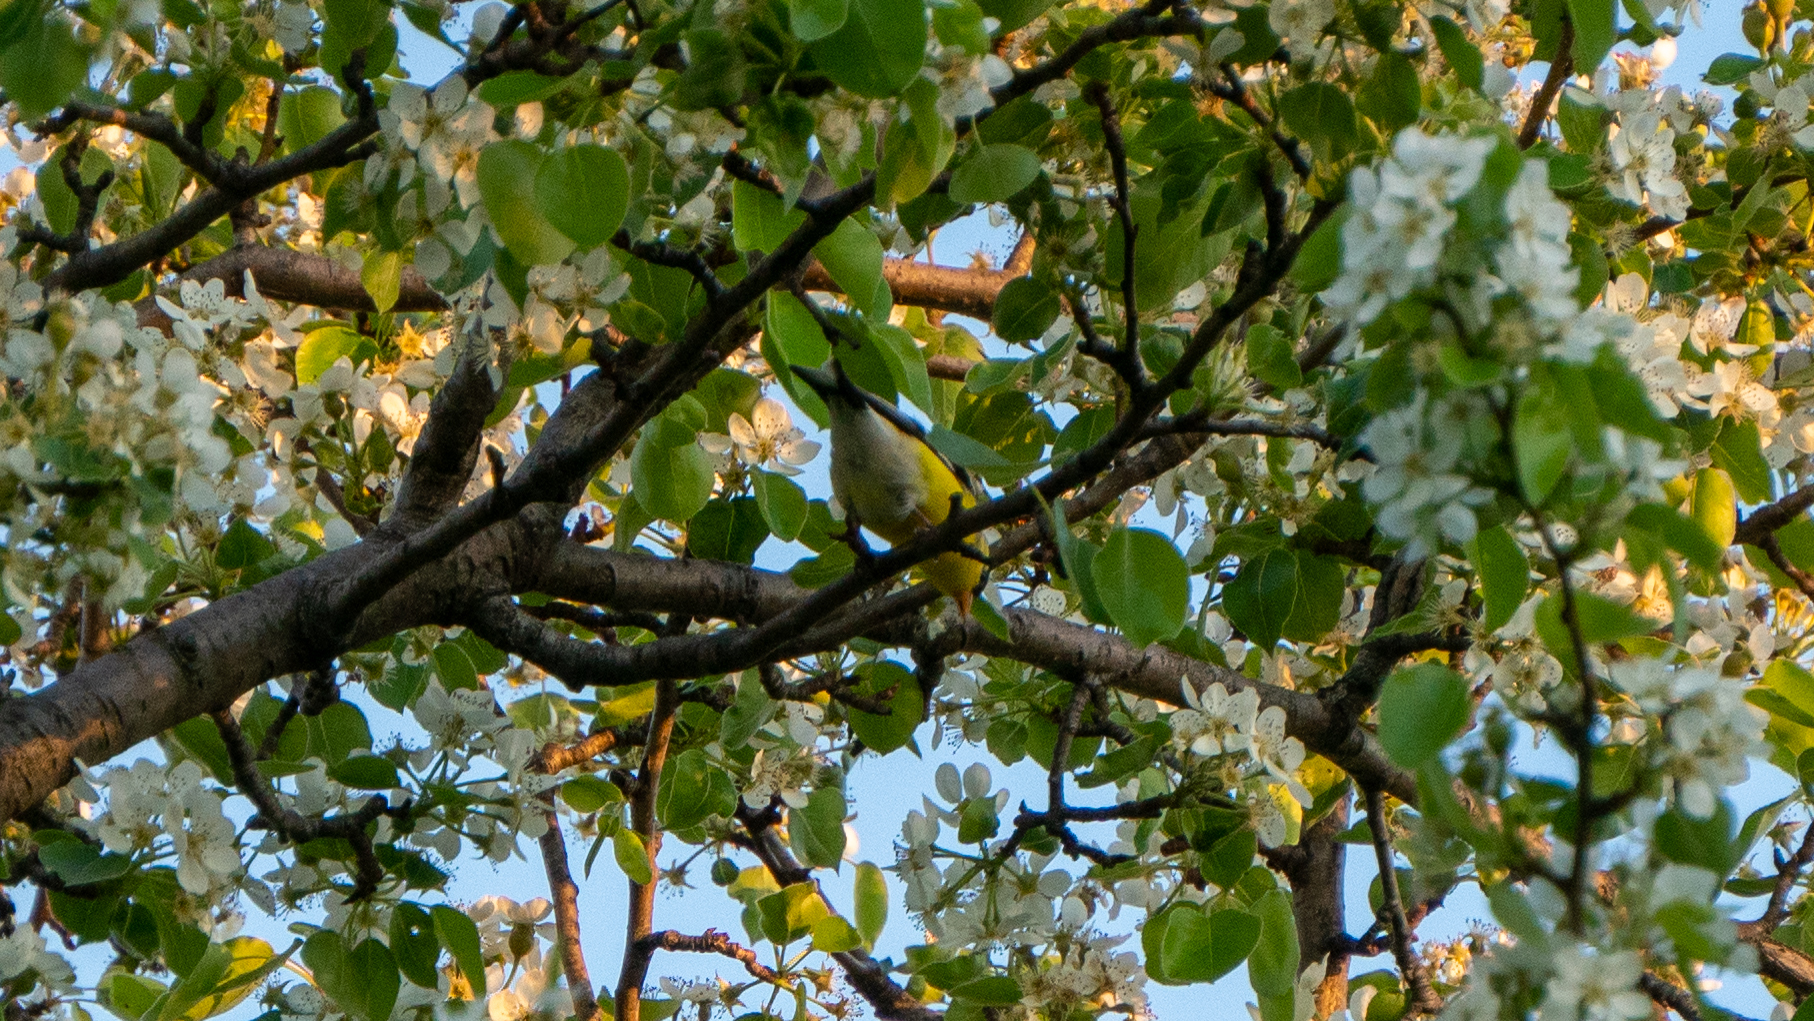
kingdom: Animalia
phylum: Chordata
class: Aves
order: Passeriformes
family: Fringillidae
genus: Spinus
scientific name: Spinus tristis
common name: American goldfinch
